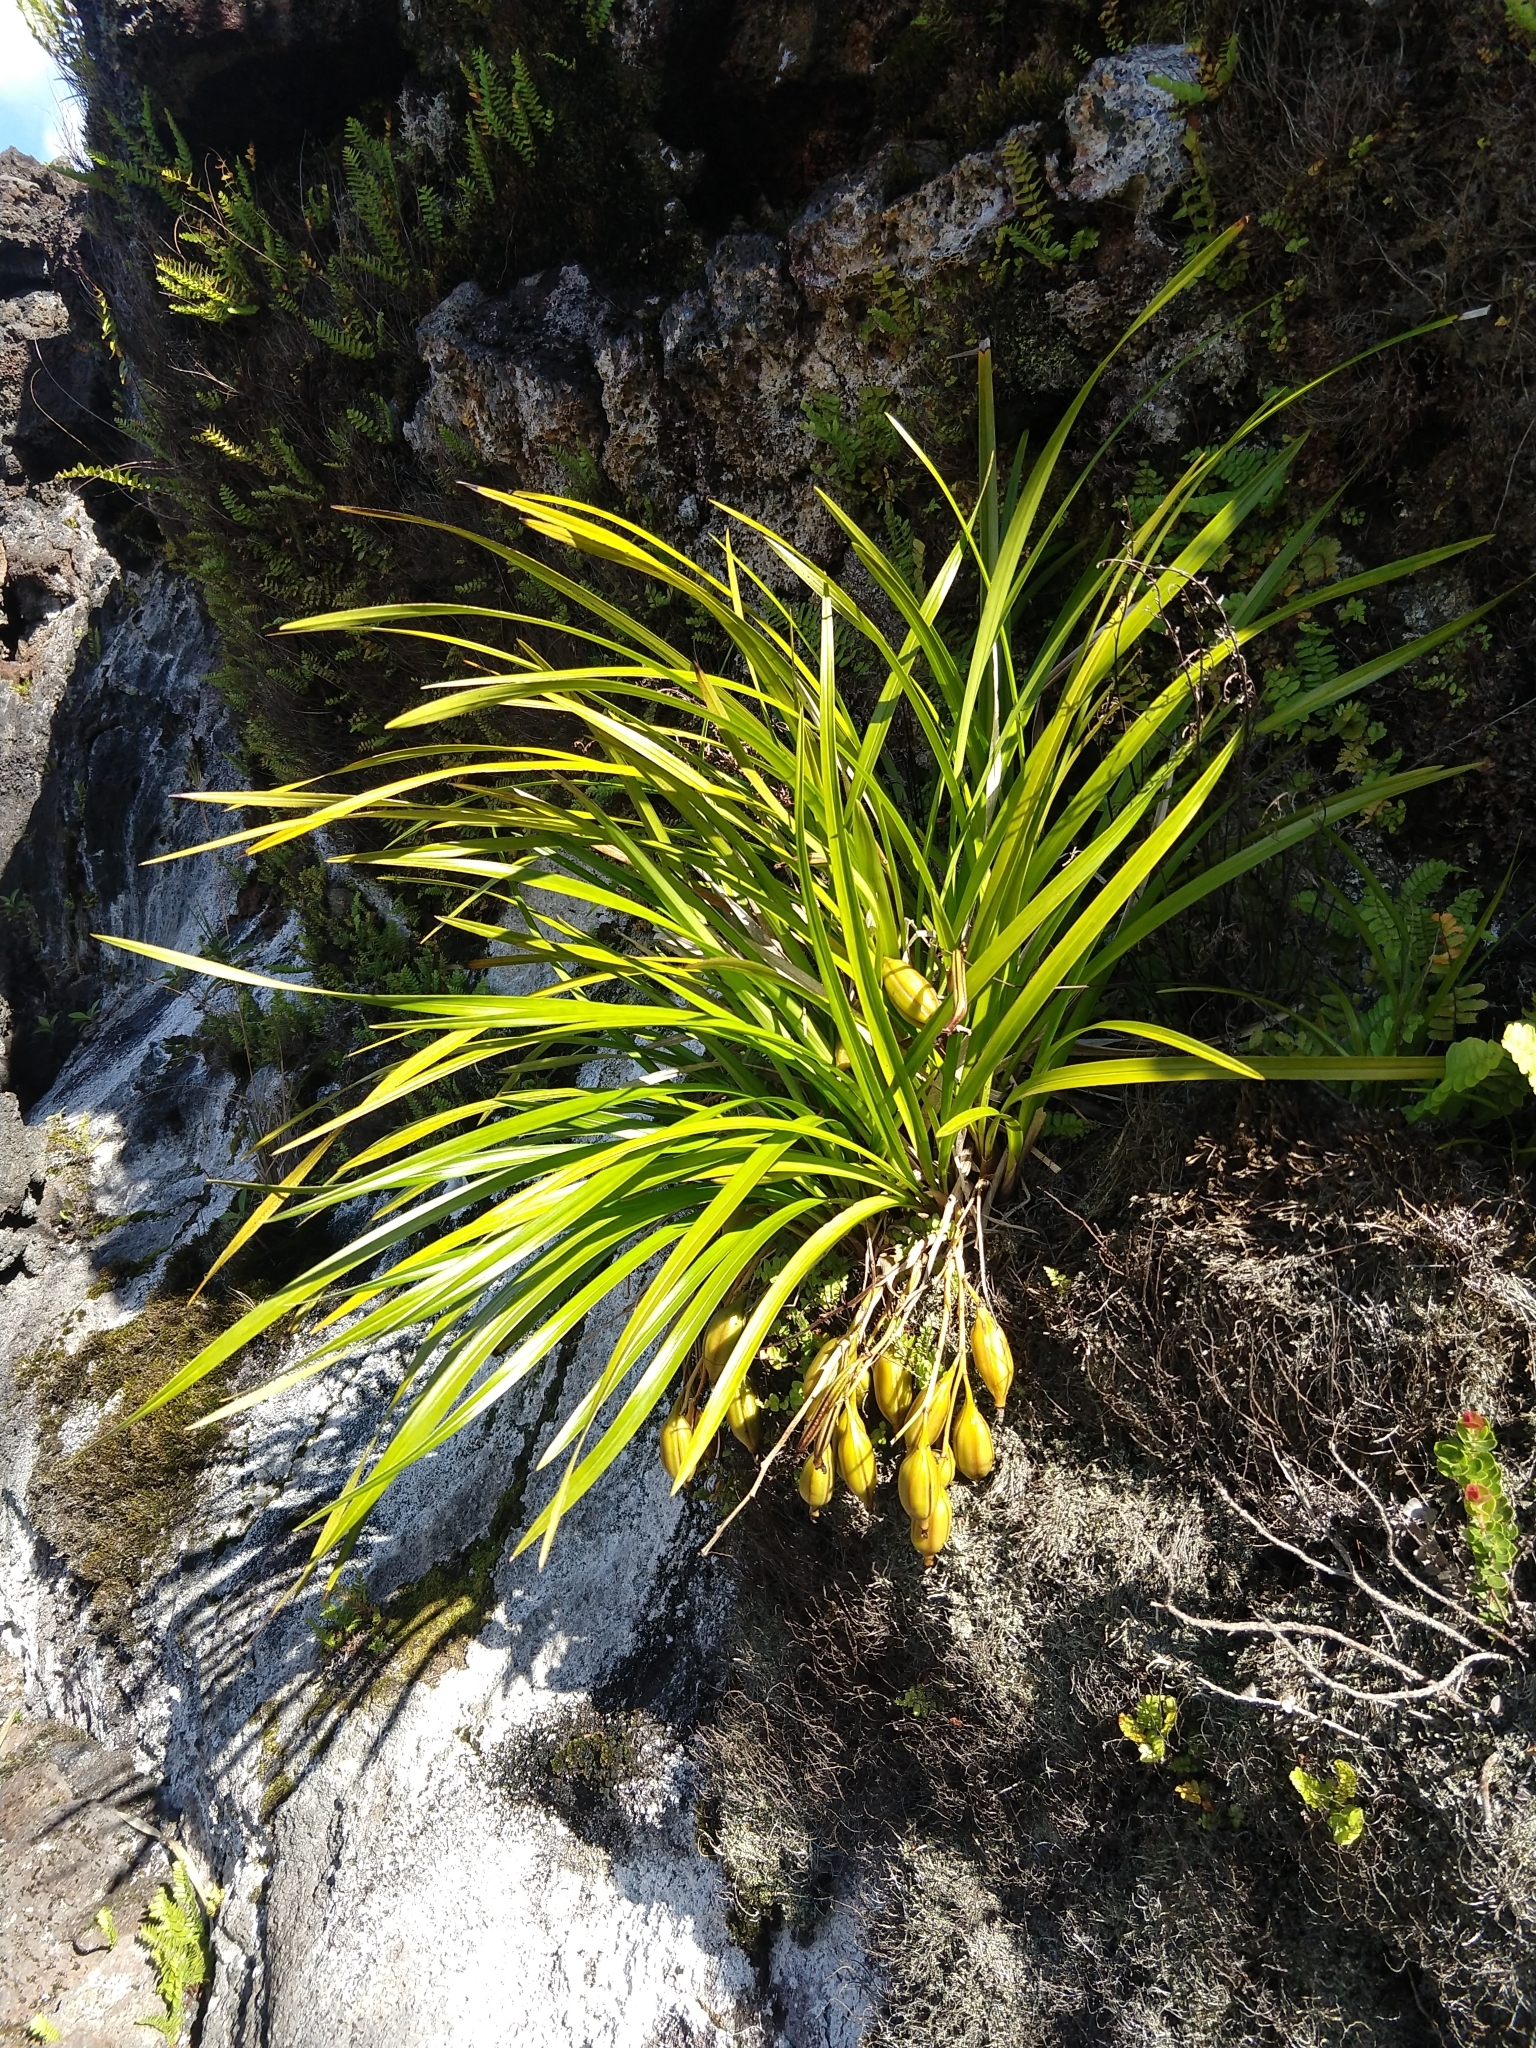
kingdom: Plantae
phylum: Tracheophyta
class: Liliopsida
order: Asparagales
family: Orchidaceae
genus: Cymbidium
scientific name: Cymbidium dayanum
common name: Orchid
